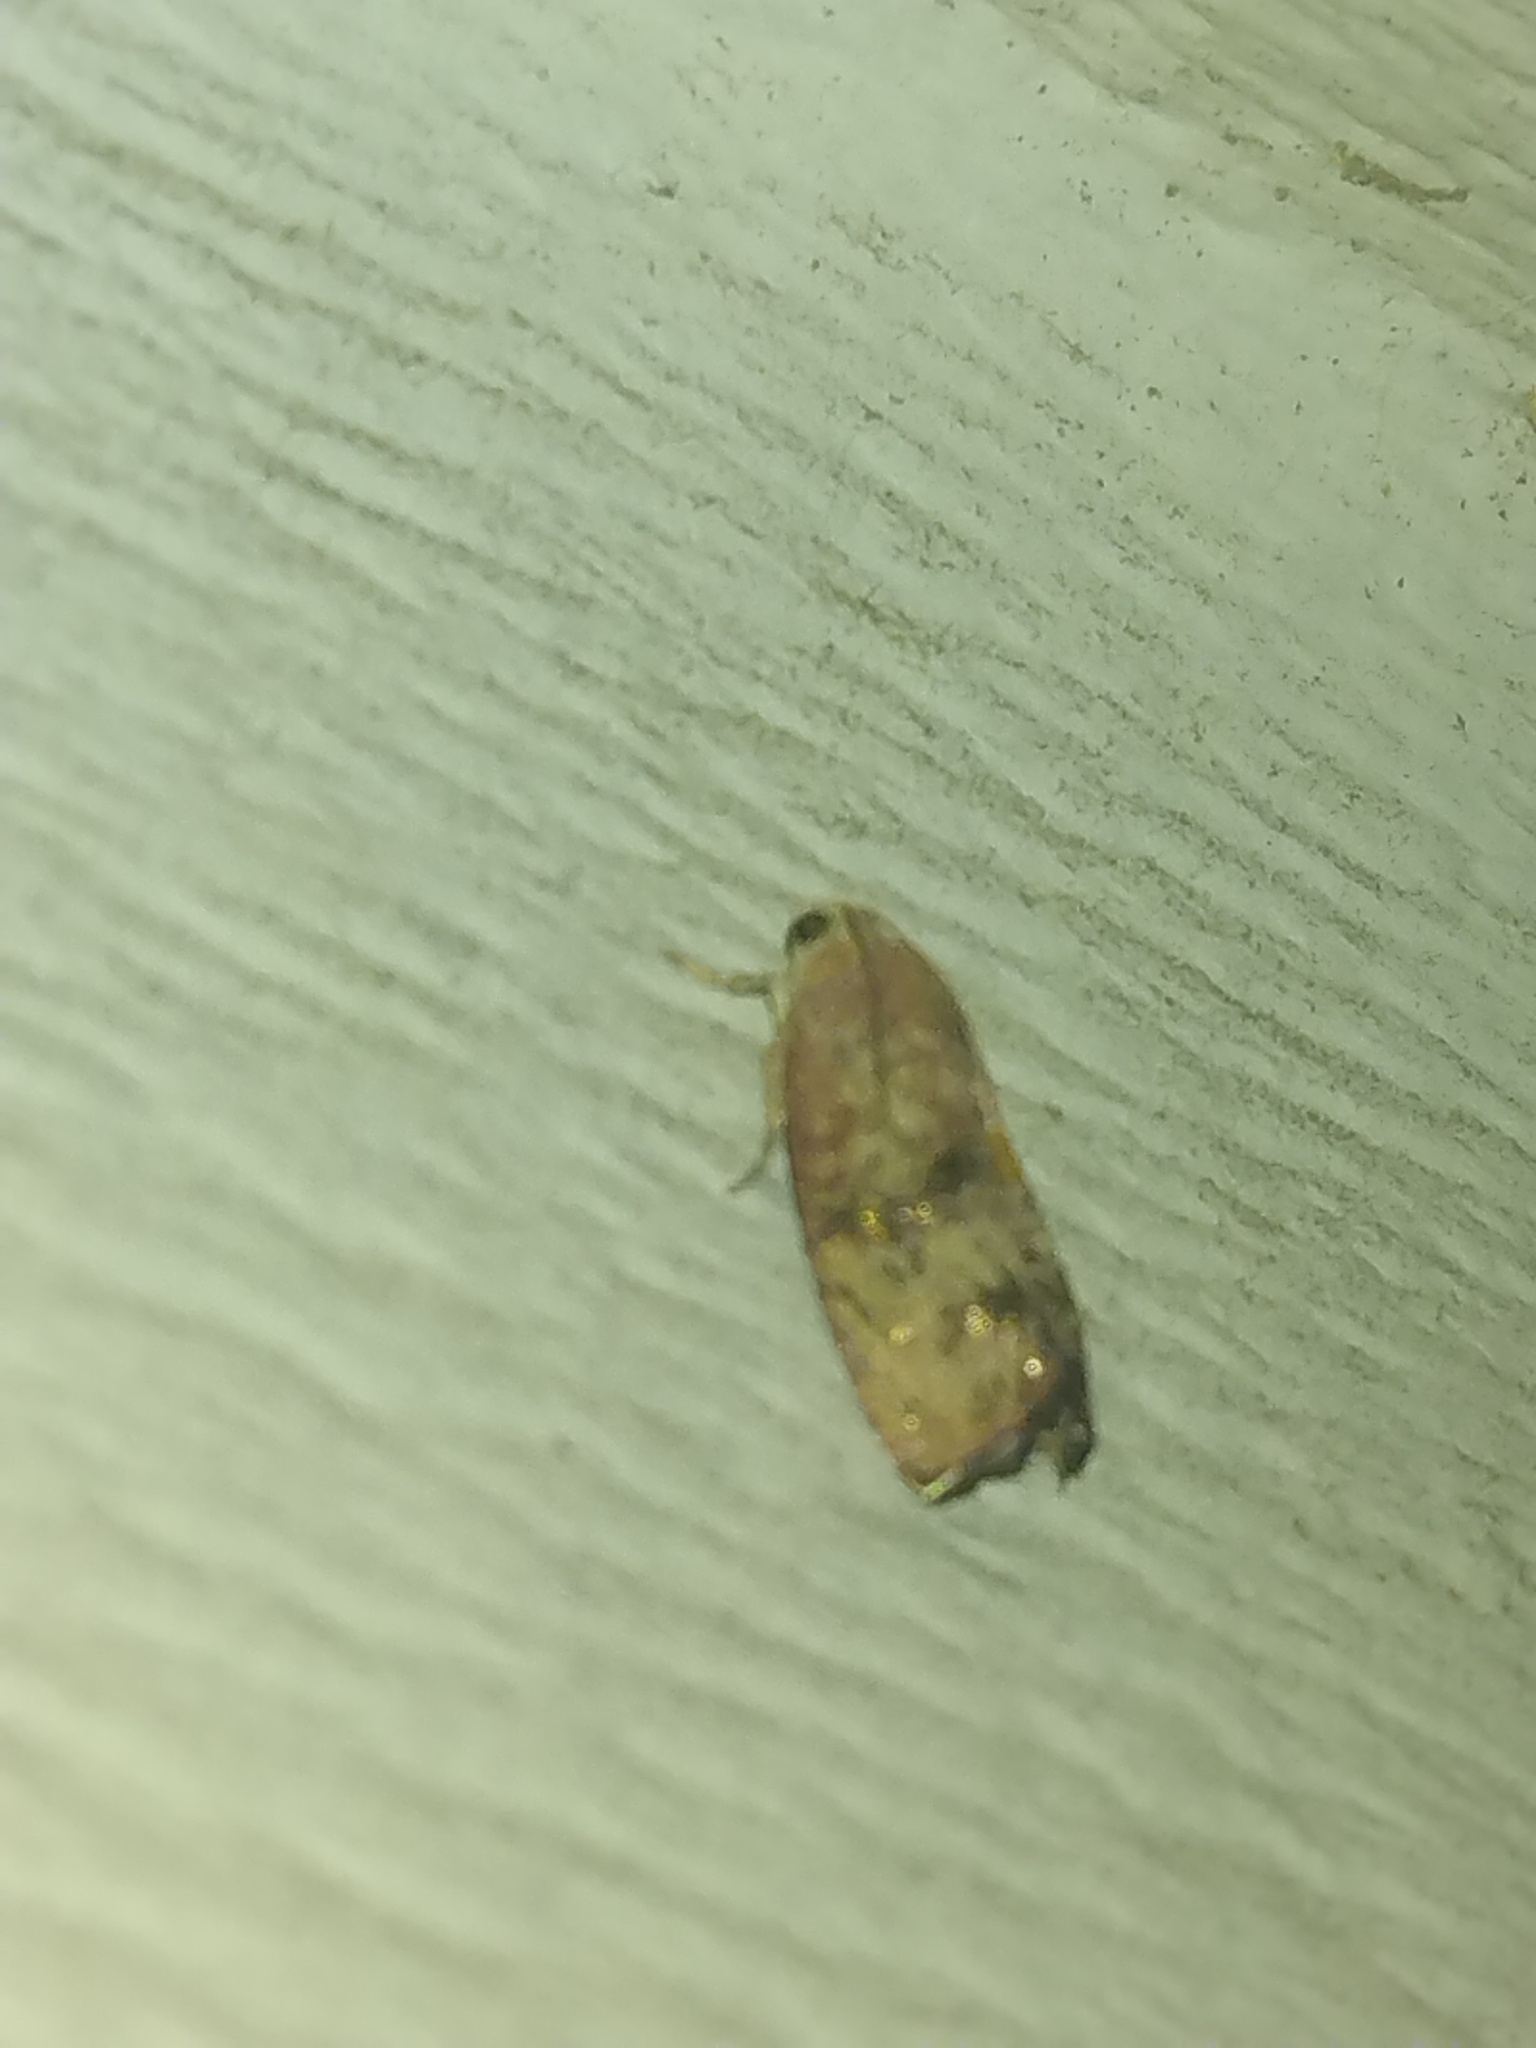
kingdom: Animalia
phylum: Arthropoda
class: Insecta
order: Lepidoptera
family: Tortricidae
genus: Cydia
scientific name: Cydia latiferreana
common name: Filbertworm moth
